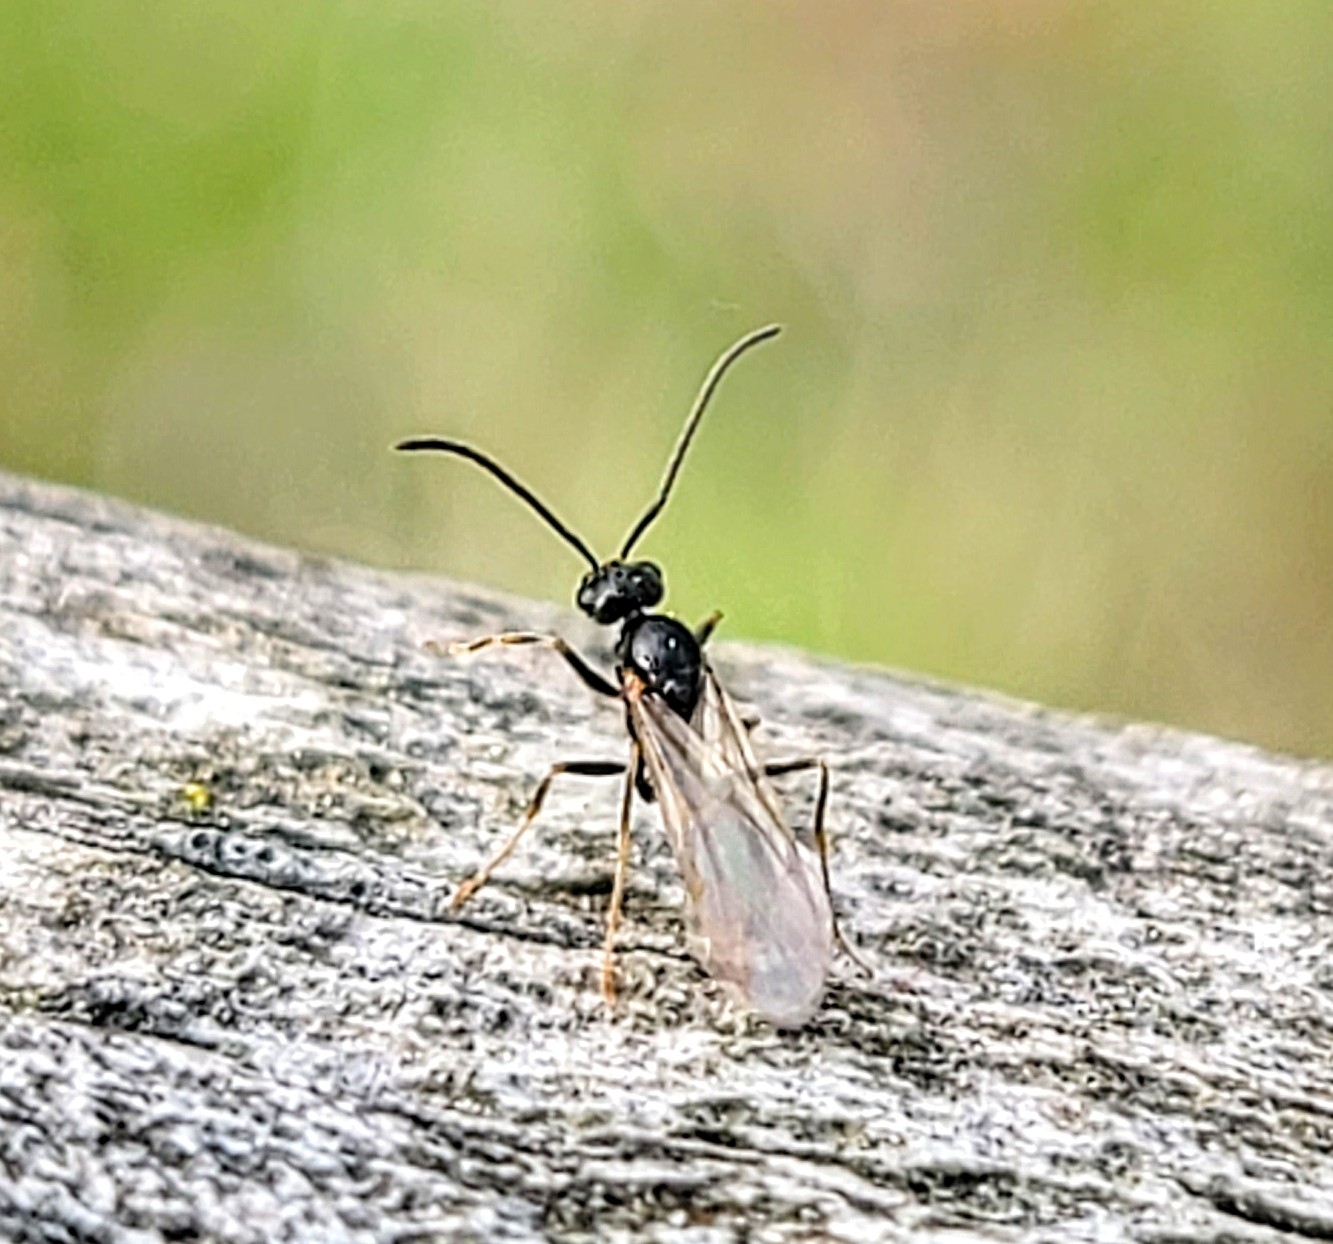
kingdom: Animalia
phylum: Arthropoda
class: Insecta
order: Hymenoptera
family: Formicidae
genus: Prenolepis
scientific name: Prenolepis imparis
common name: Small honey ant
